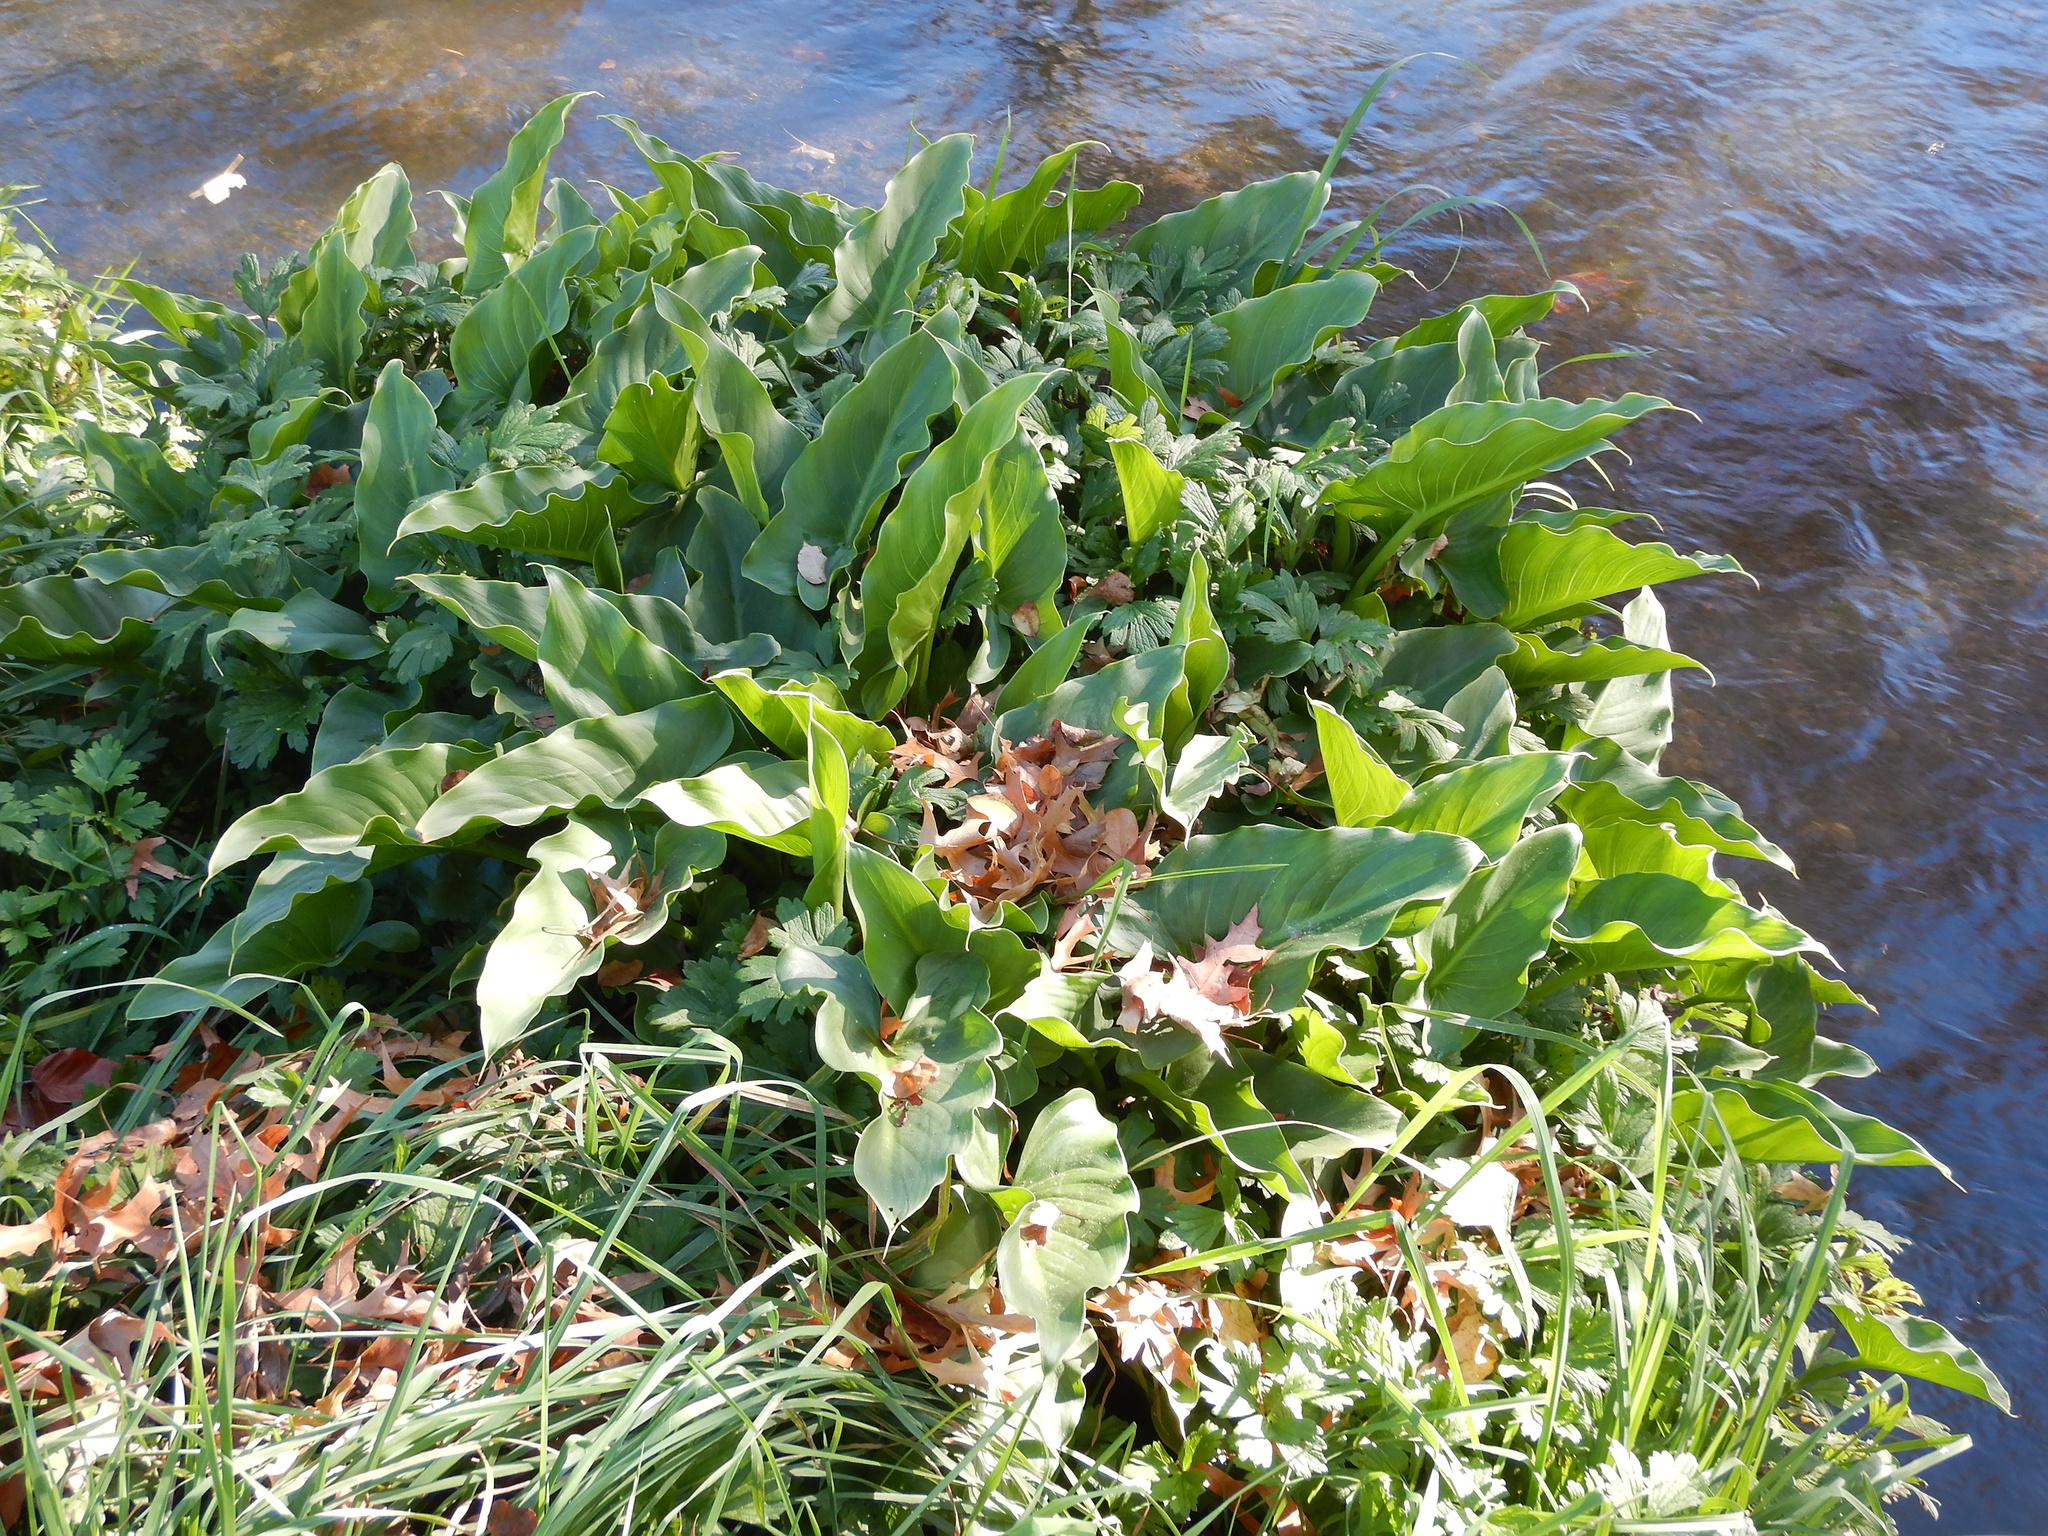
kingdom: Plantae
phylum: Tracheophyta
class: Liliopsida
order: Alismatales
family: Araceae
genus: Zantedeschia
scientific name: Zantedeschia aethiopica
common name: Altar-lily
